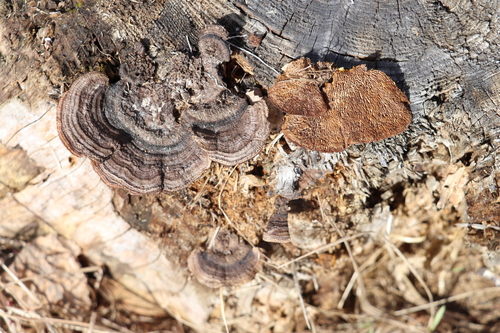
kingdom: Fungi
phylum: Basidiomycota
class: Agaricomycetes
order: Gloeophyllales
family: Gloeophyllaceae
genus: Gloeophyllum
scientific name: Gloeophyllum sepiarium
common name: Conifer mazegill
